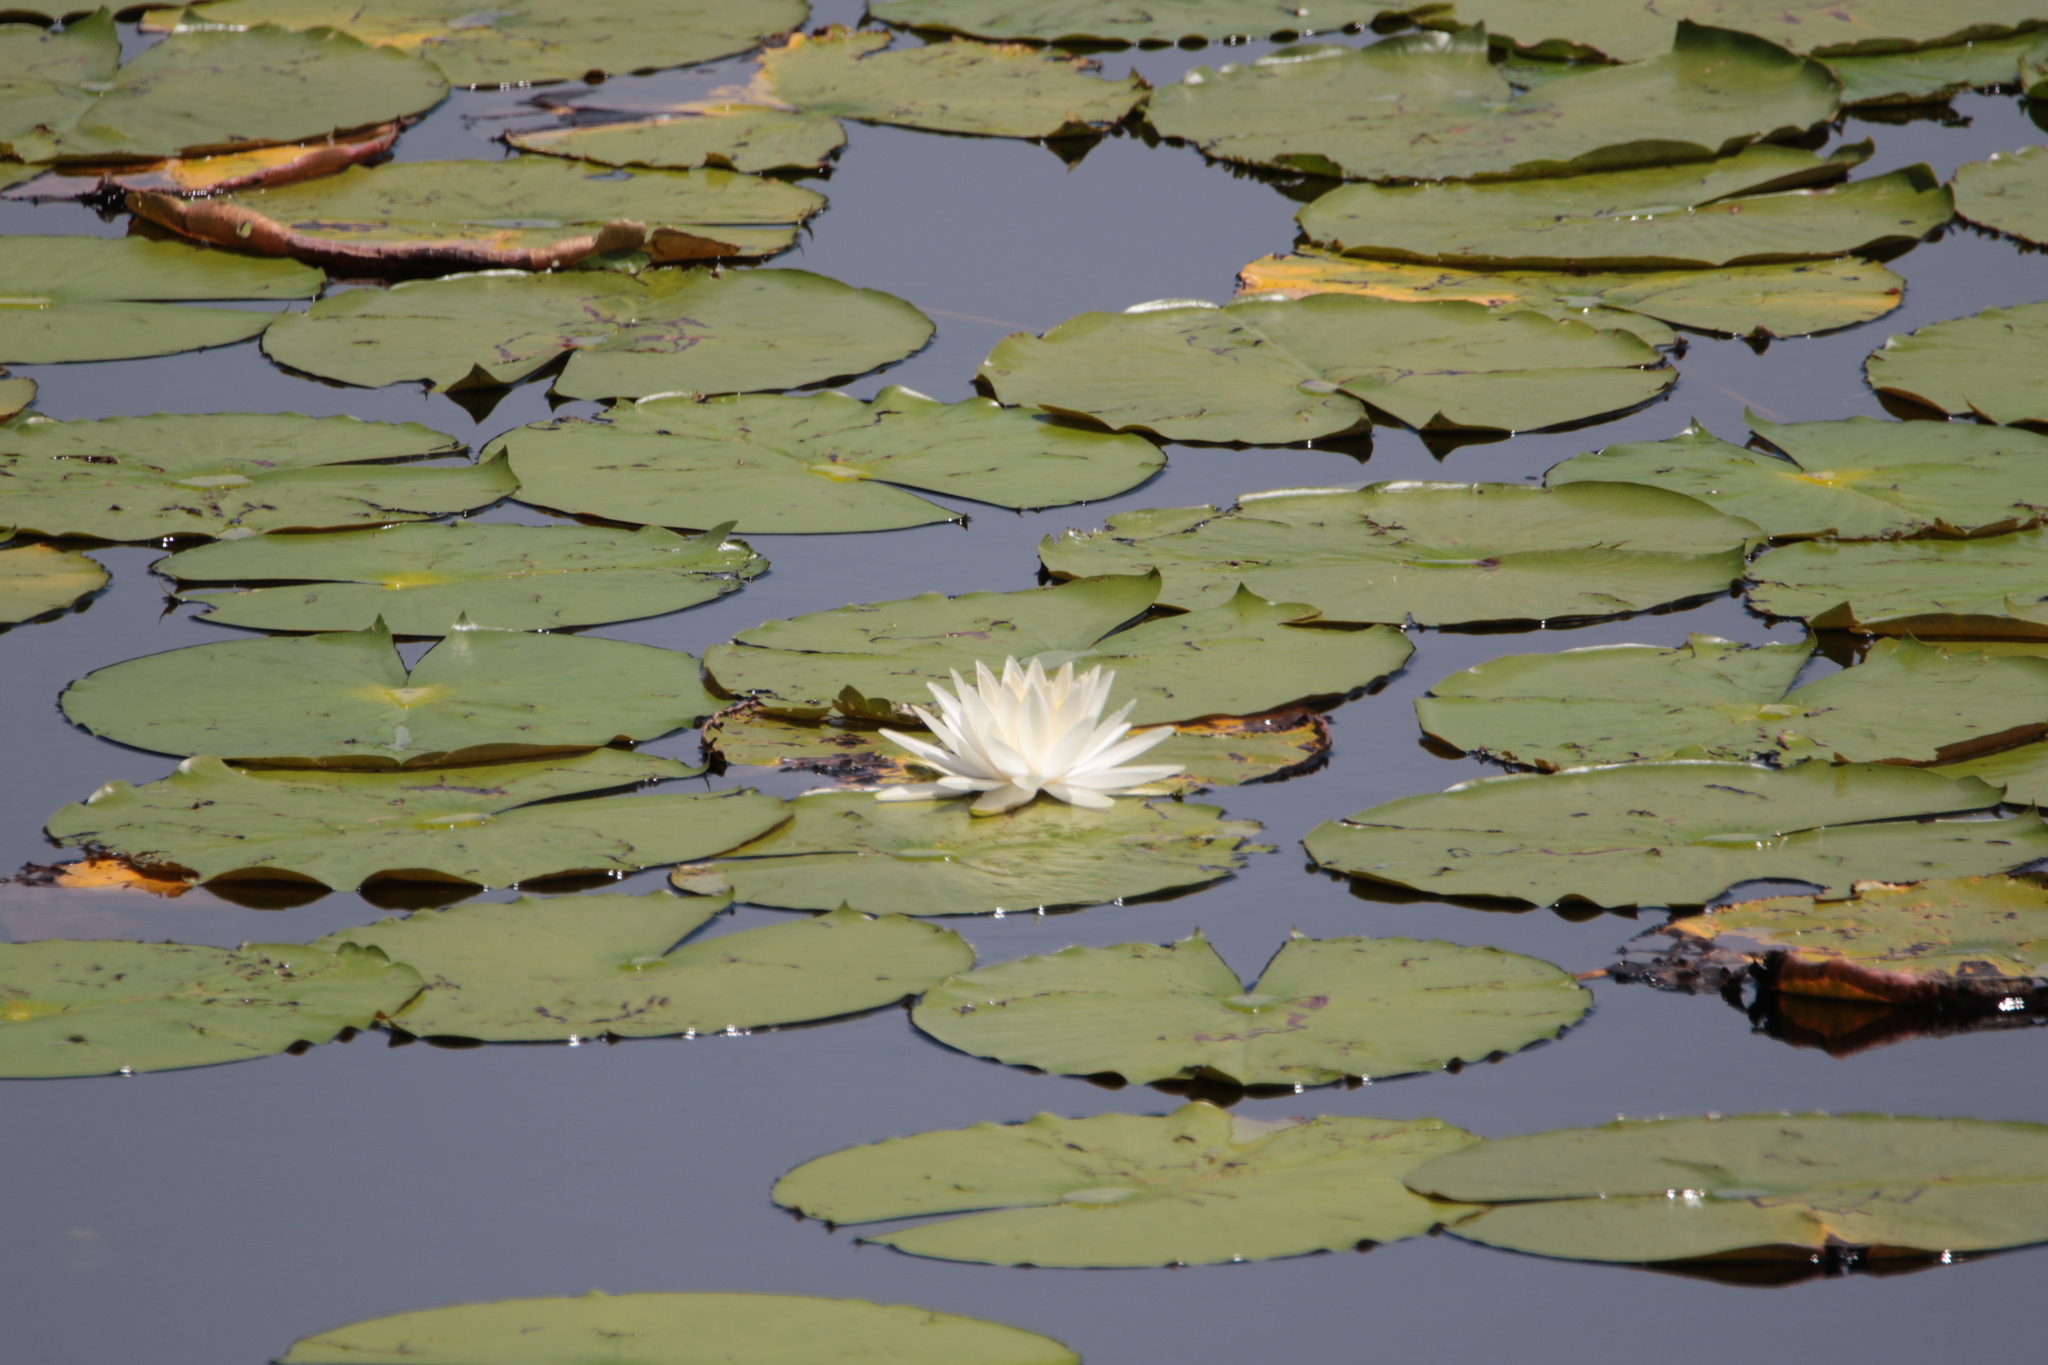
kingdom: Plantae
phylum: Tracheophyta
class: Magnoliopsida
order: Nymphaeales
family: Nymphaeaceae
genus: Nymphaea
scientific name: Nymphaea odorata
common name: Fragrant water-lily
